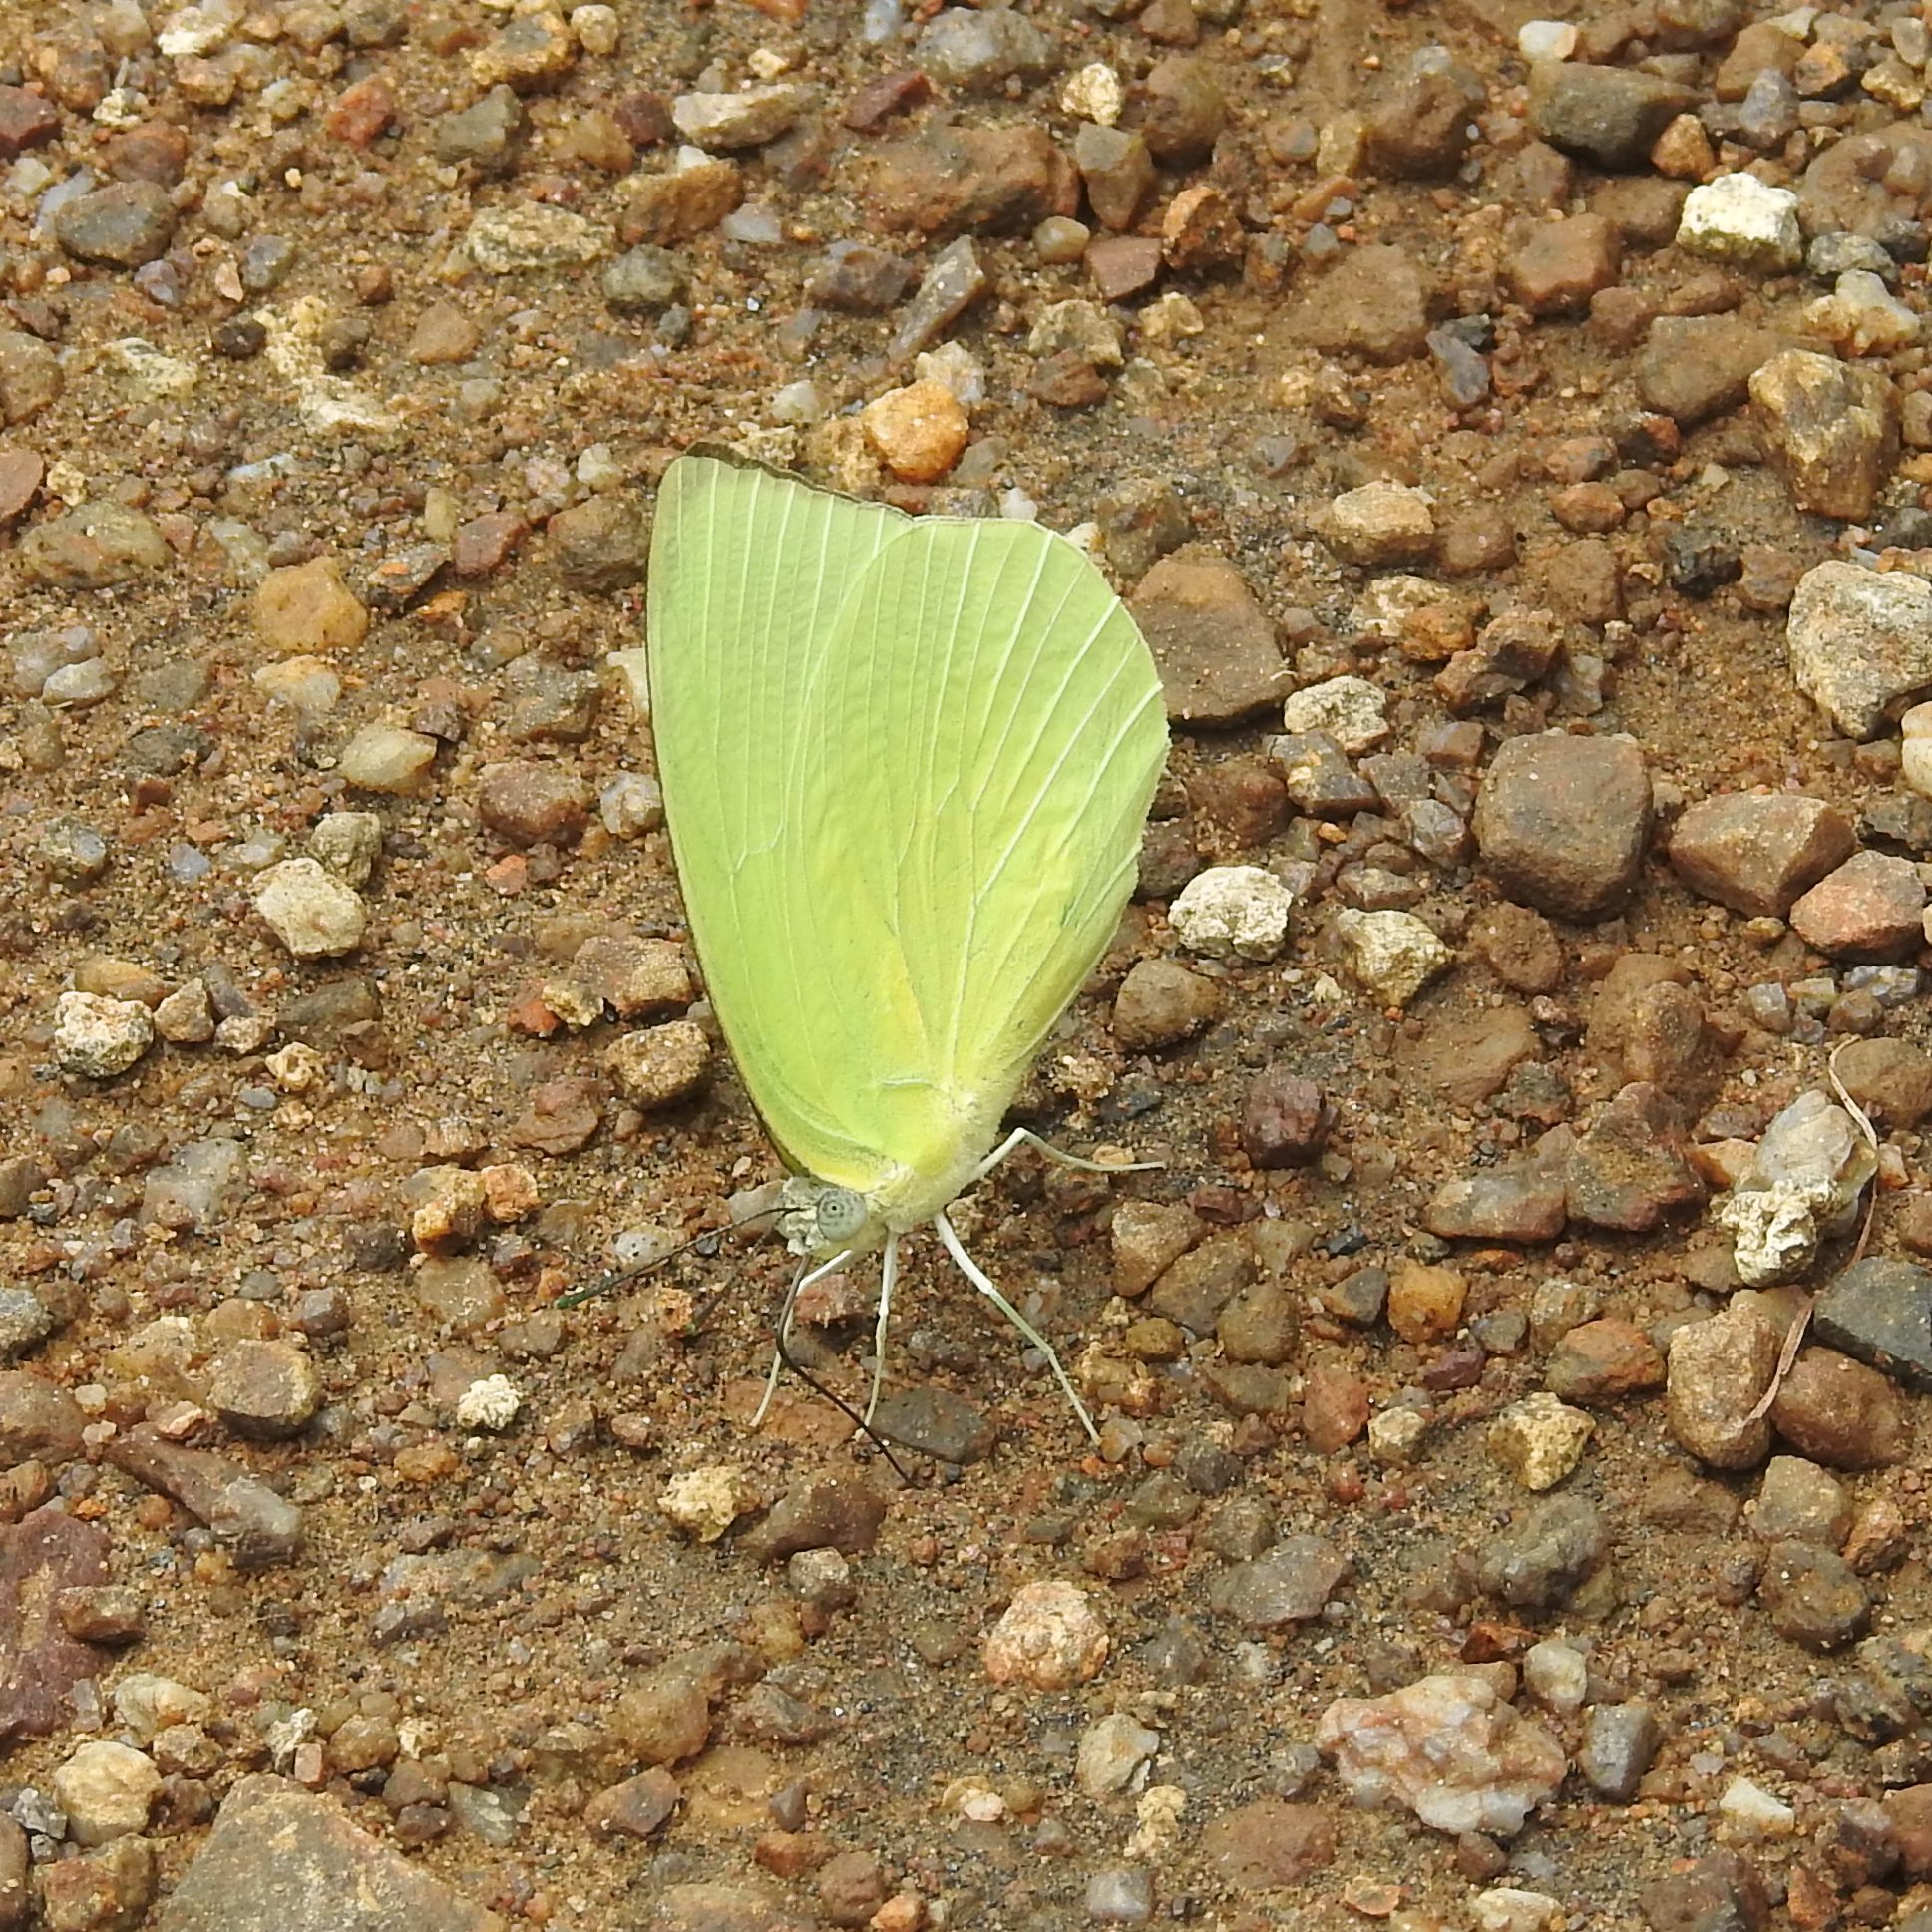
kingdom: Animalia
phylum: Arthropoda
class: Insecta
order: Lepidoptera
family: Pieridae
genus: Catopsilia
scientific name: Catopsilia pomona
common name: Common emigrant
